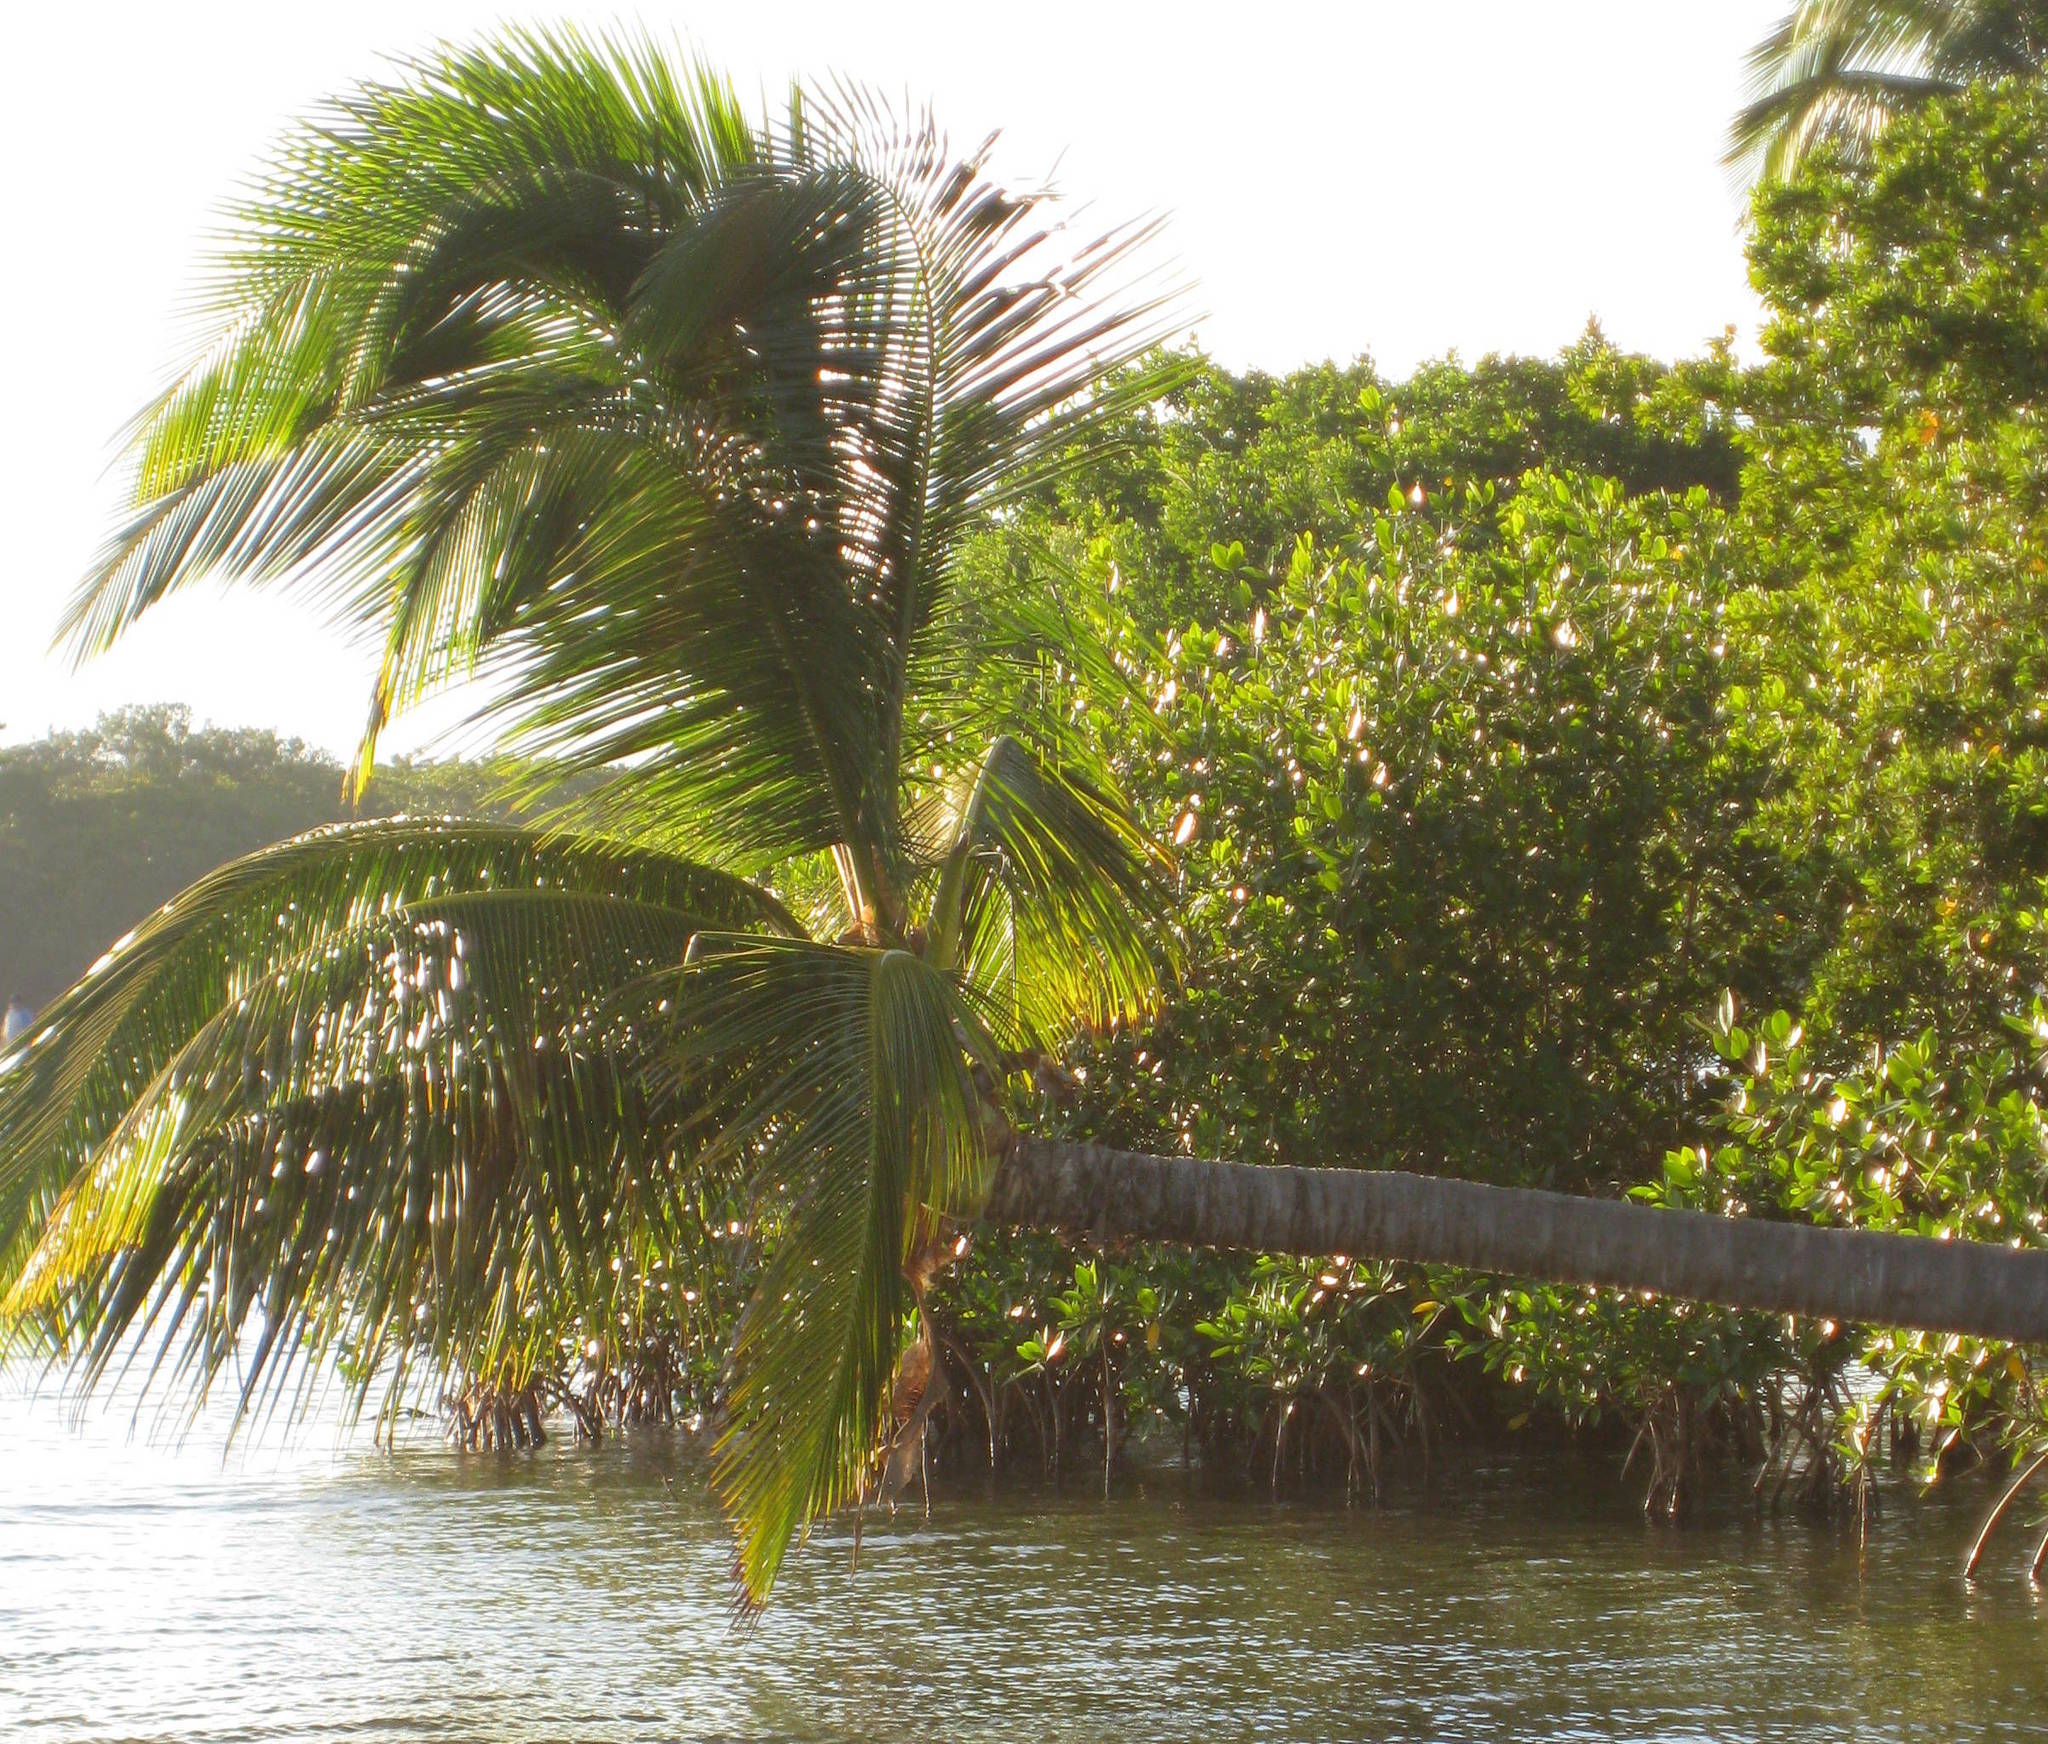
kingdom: Plantae
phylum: Tracheophyta
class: Liliopsida
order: Arecales
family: Arecaceae
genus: Cocos
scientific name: Cocos nucifera
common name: Coconut palm
